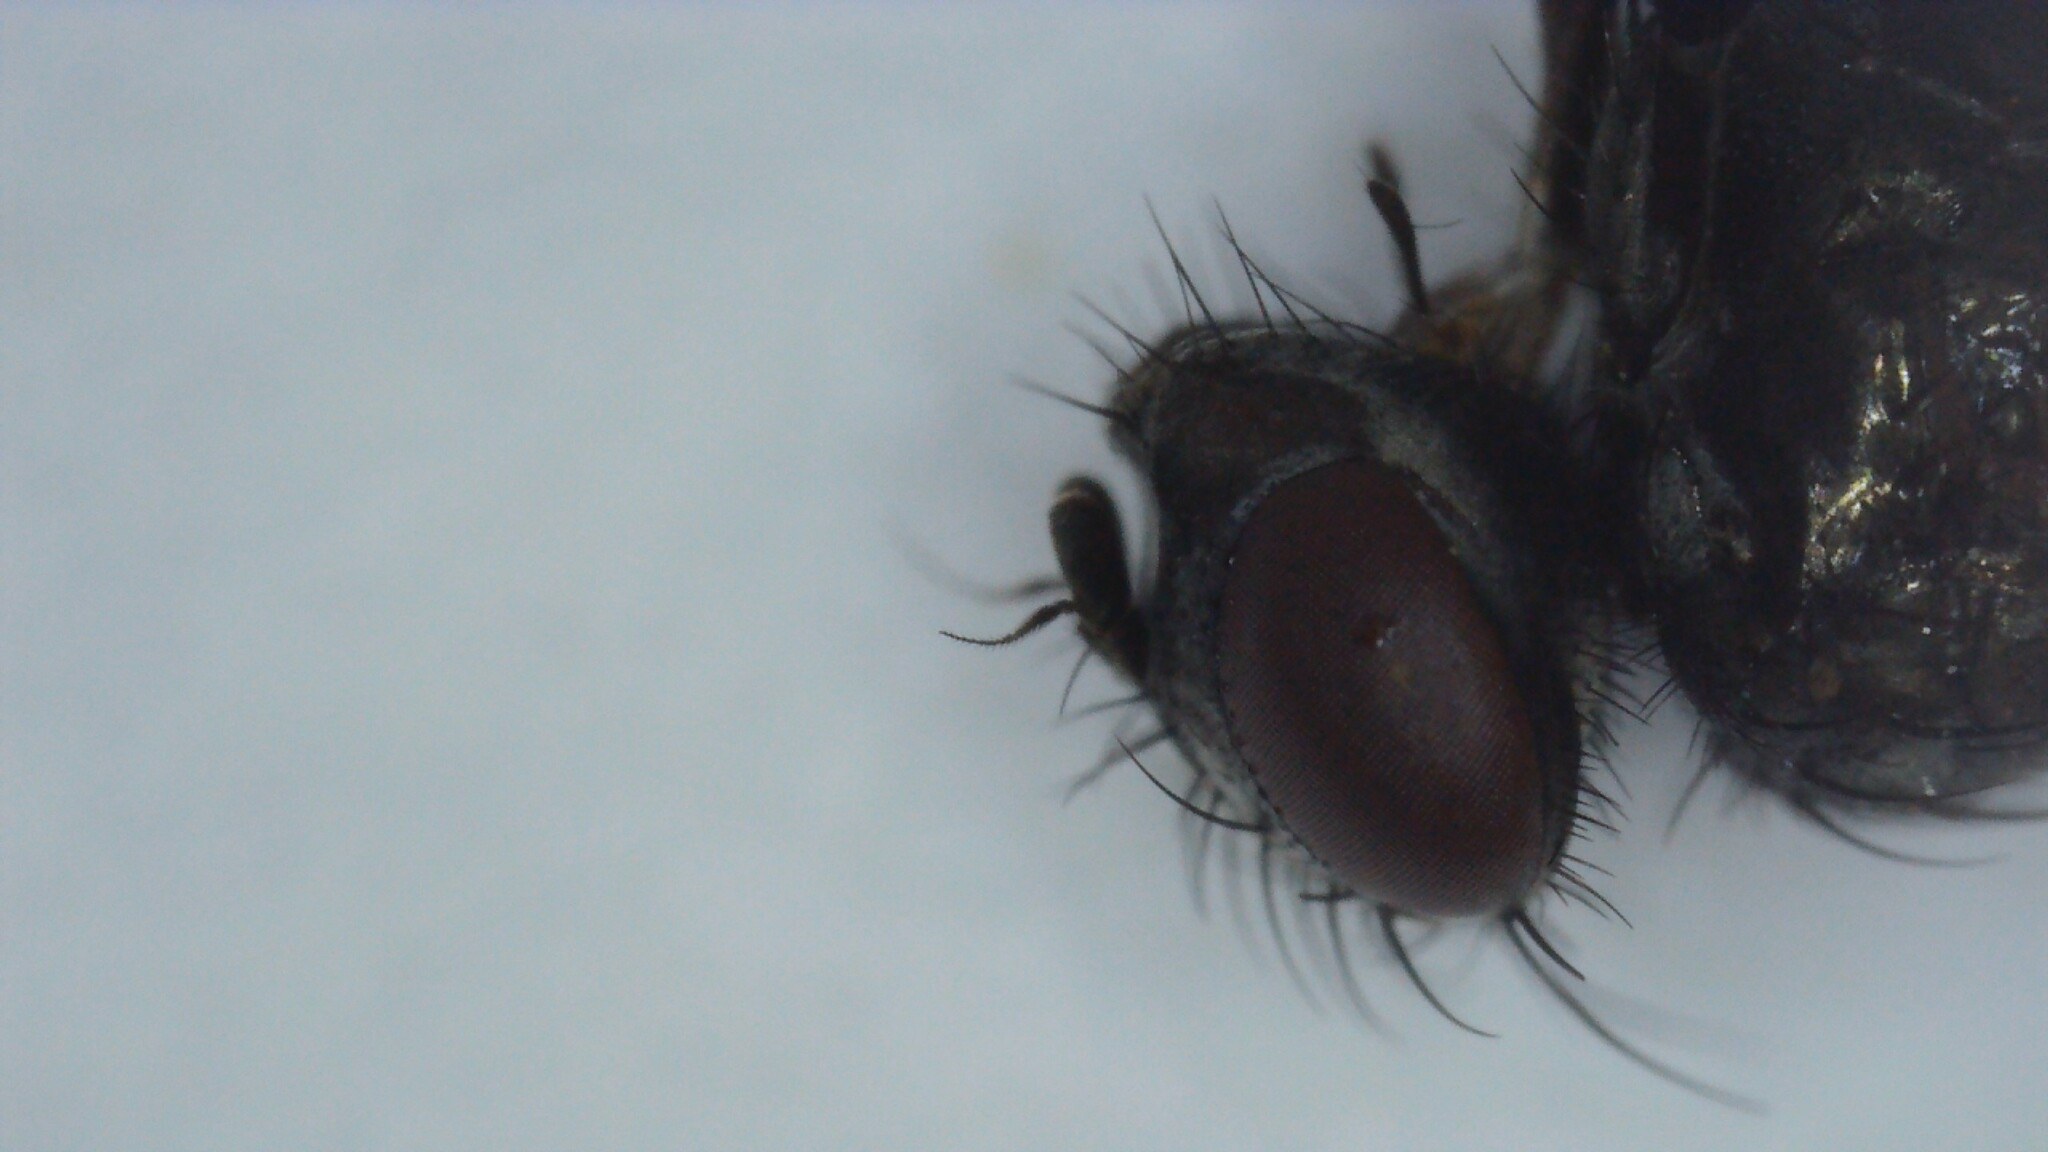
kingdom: Animalia
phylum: Arthropoda
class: Insecta
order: Diptera
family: Calliphoridae
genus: Rhinophora
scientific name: Rhinophora lepida
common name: Pouting woodlouse-fly
